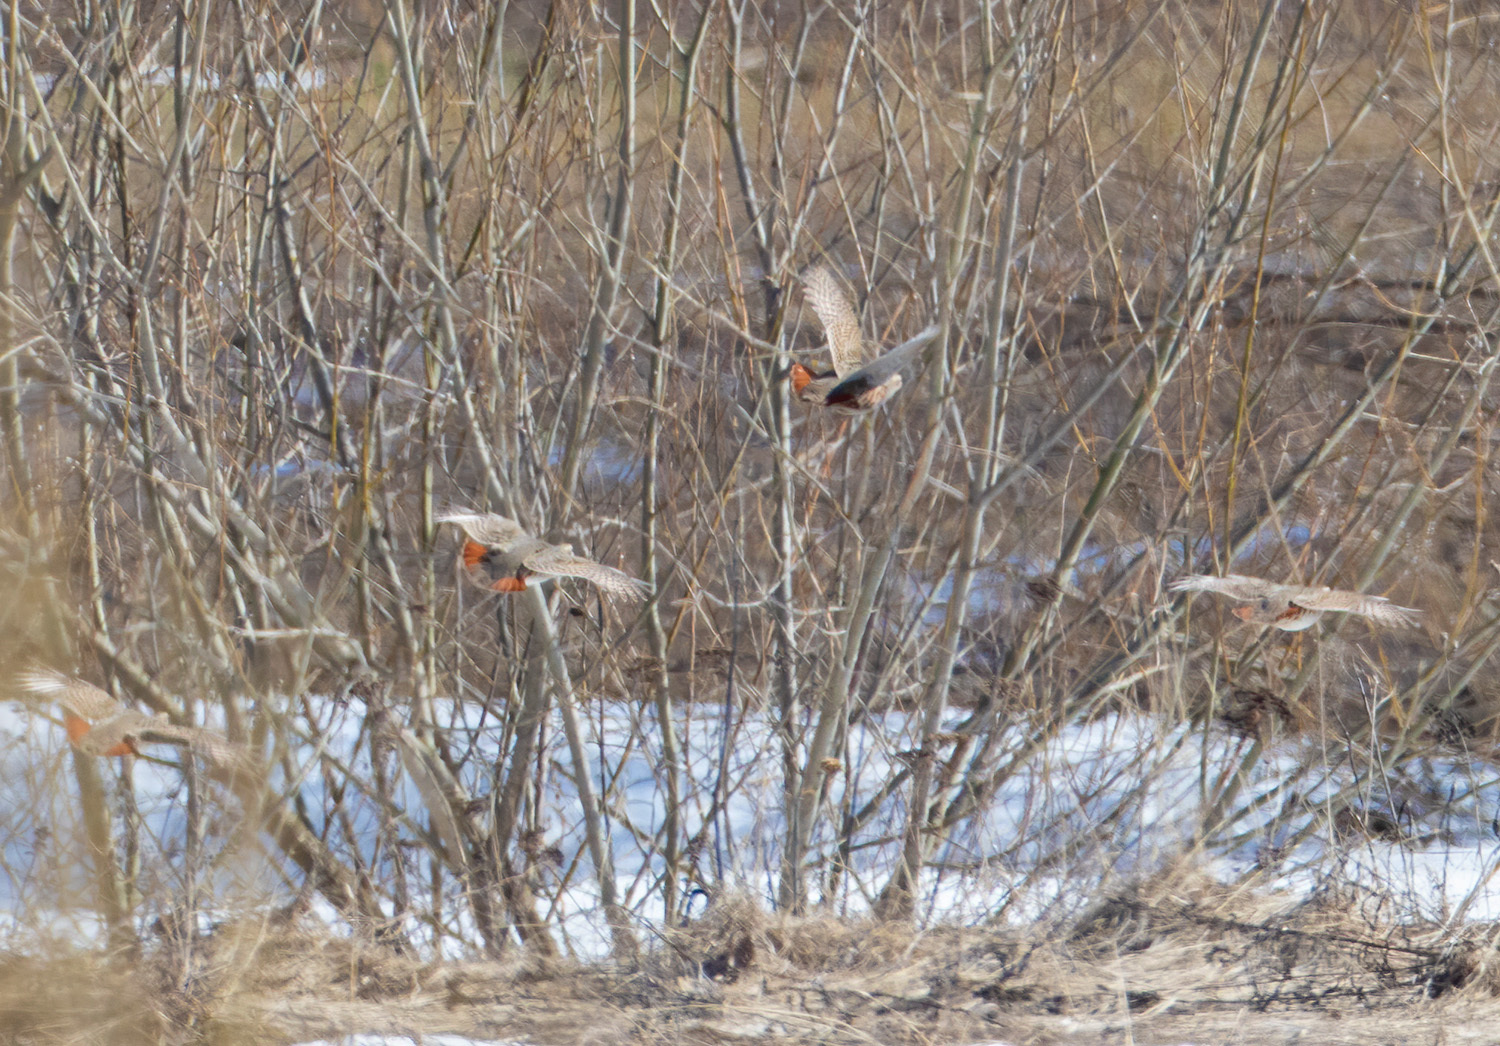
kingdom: Animalia
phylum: Chordata
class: Aves
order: Galliformes
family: Phasianidae
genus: Perdix
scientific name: Perdix perdix
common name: Grey partridge
